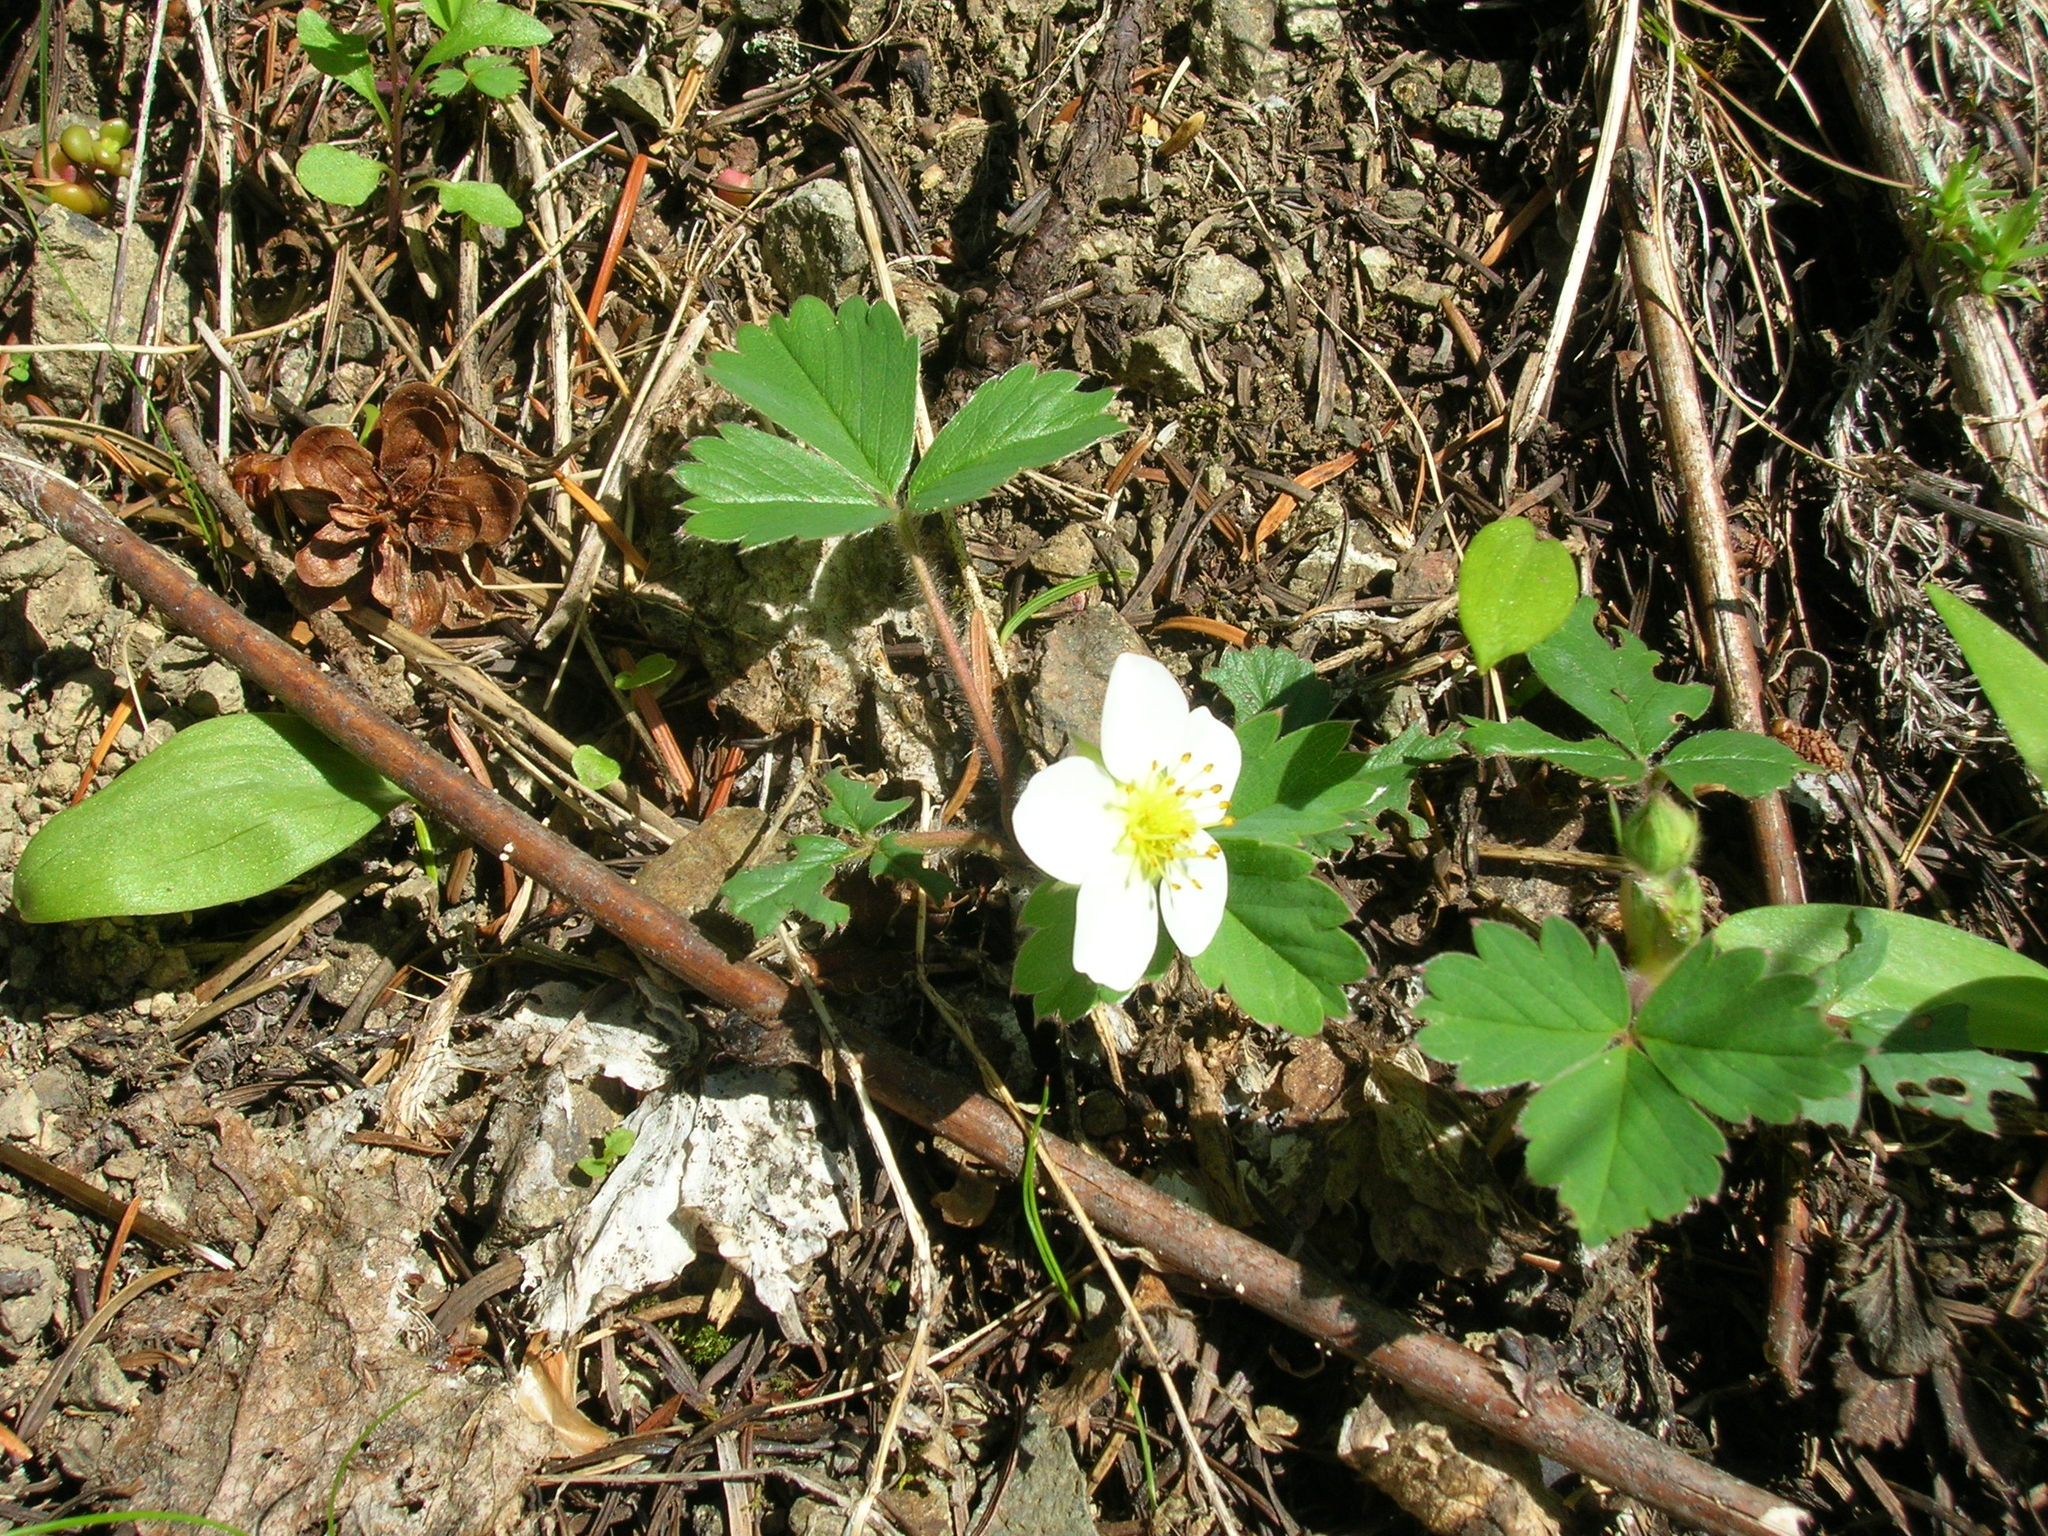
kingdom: Plantae
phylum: Tracheophyta
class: Magnoliopsida
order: Rosales
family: Rosaceae
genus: Fragaria
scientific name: Fragaria virginiana
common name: Thickleaved wild strawberry
